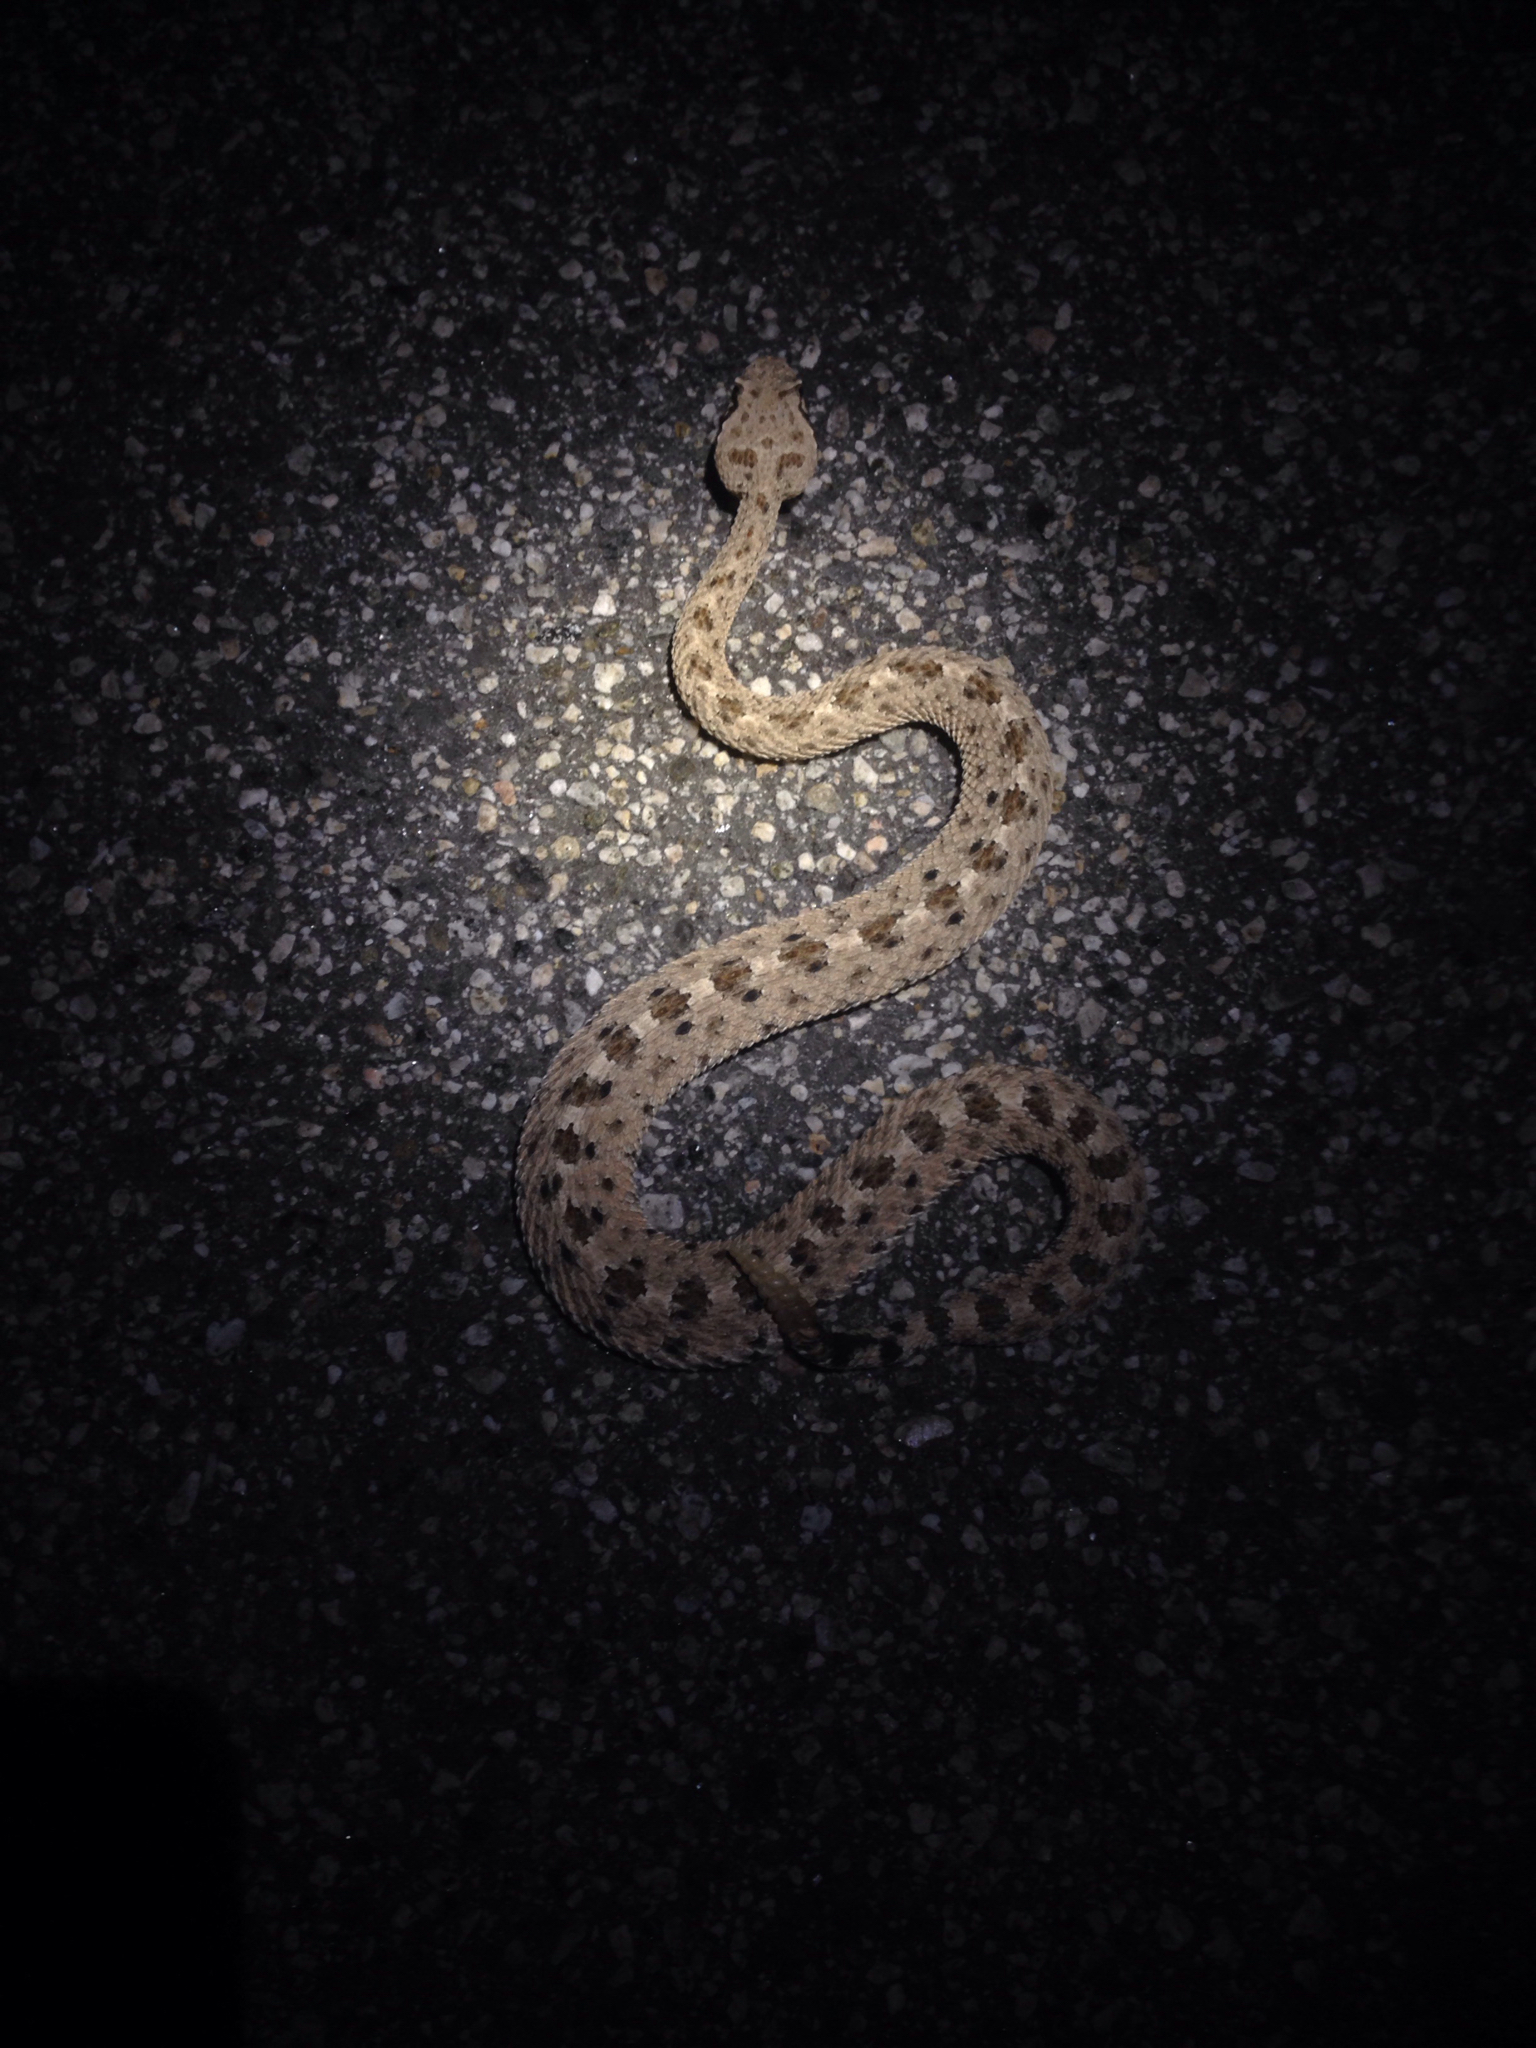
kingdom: Animalia
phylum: Chordata
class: Squamata
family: Viperidae
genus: Crotalus
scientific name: Crotalus cerastes
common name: Sidewinder
